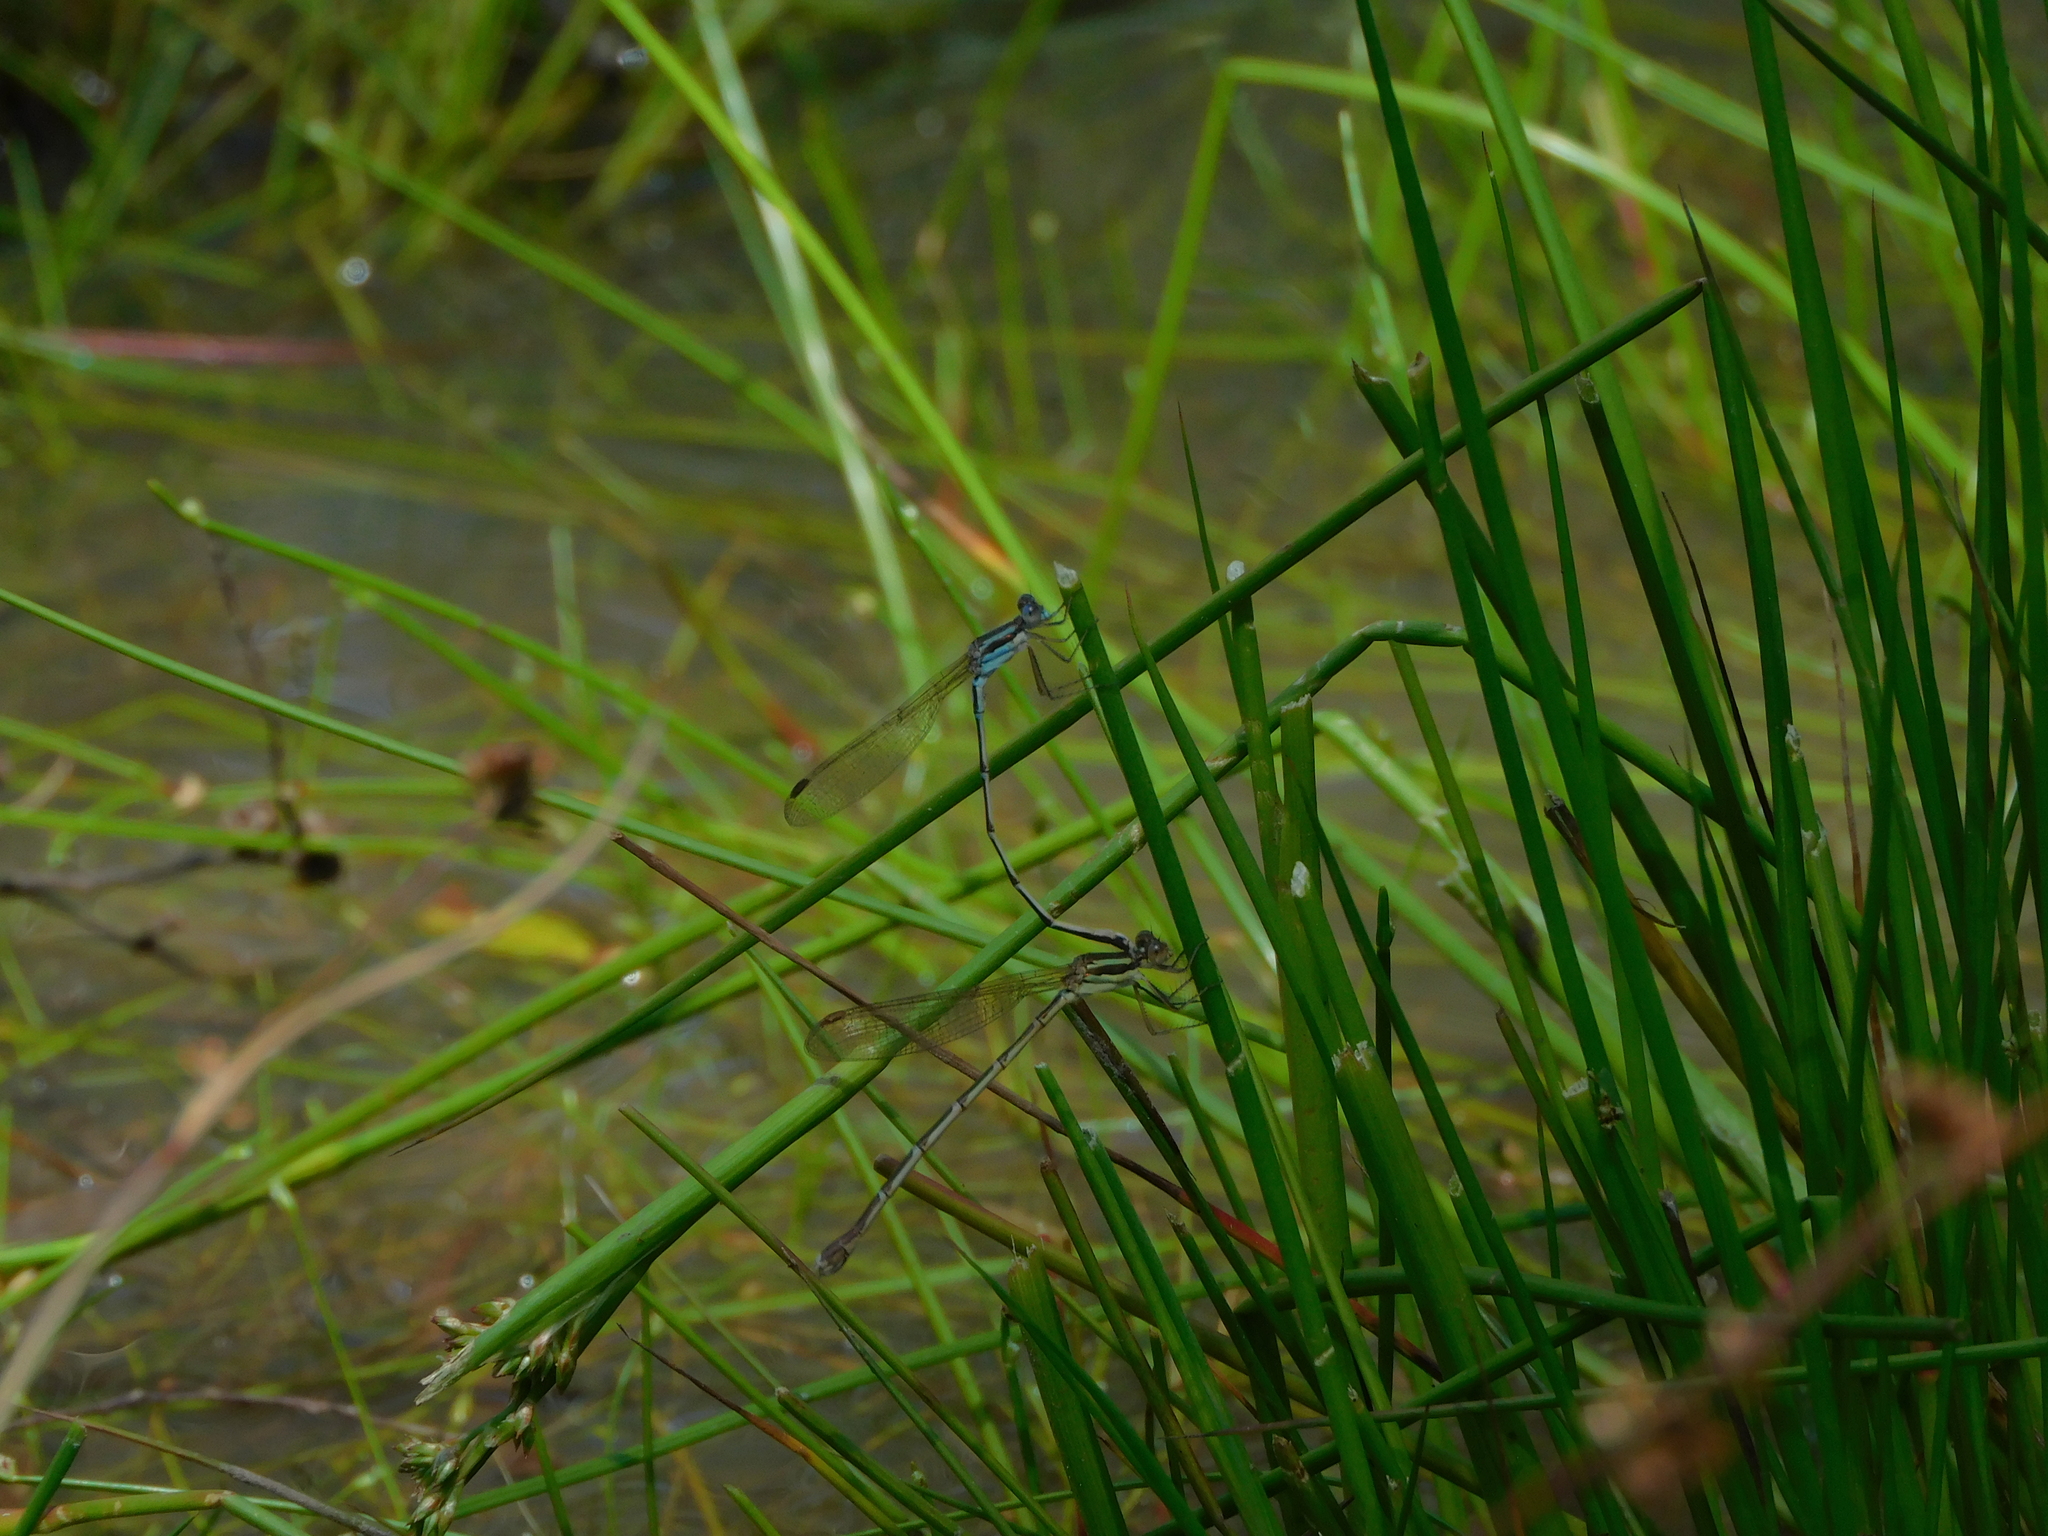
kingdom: Animalia
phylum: Arthropoda
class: Insecta
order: Odonata
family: Lestidae
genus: Austrolestes
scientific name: Austrolestes analis
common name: Slender ringtail
